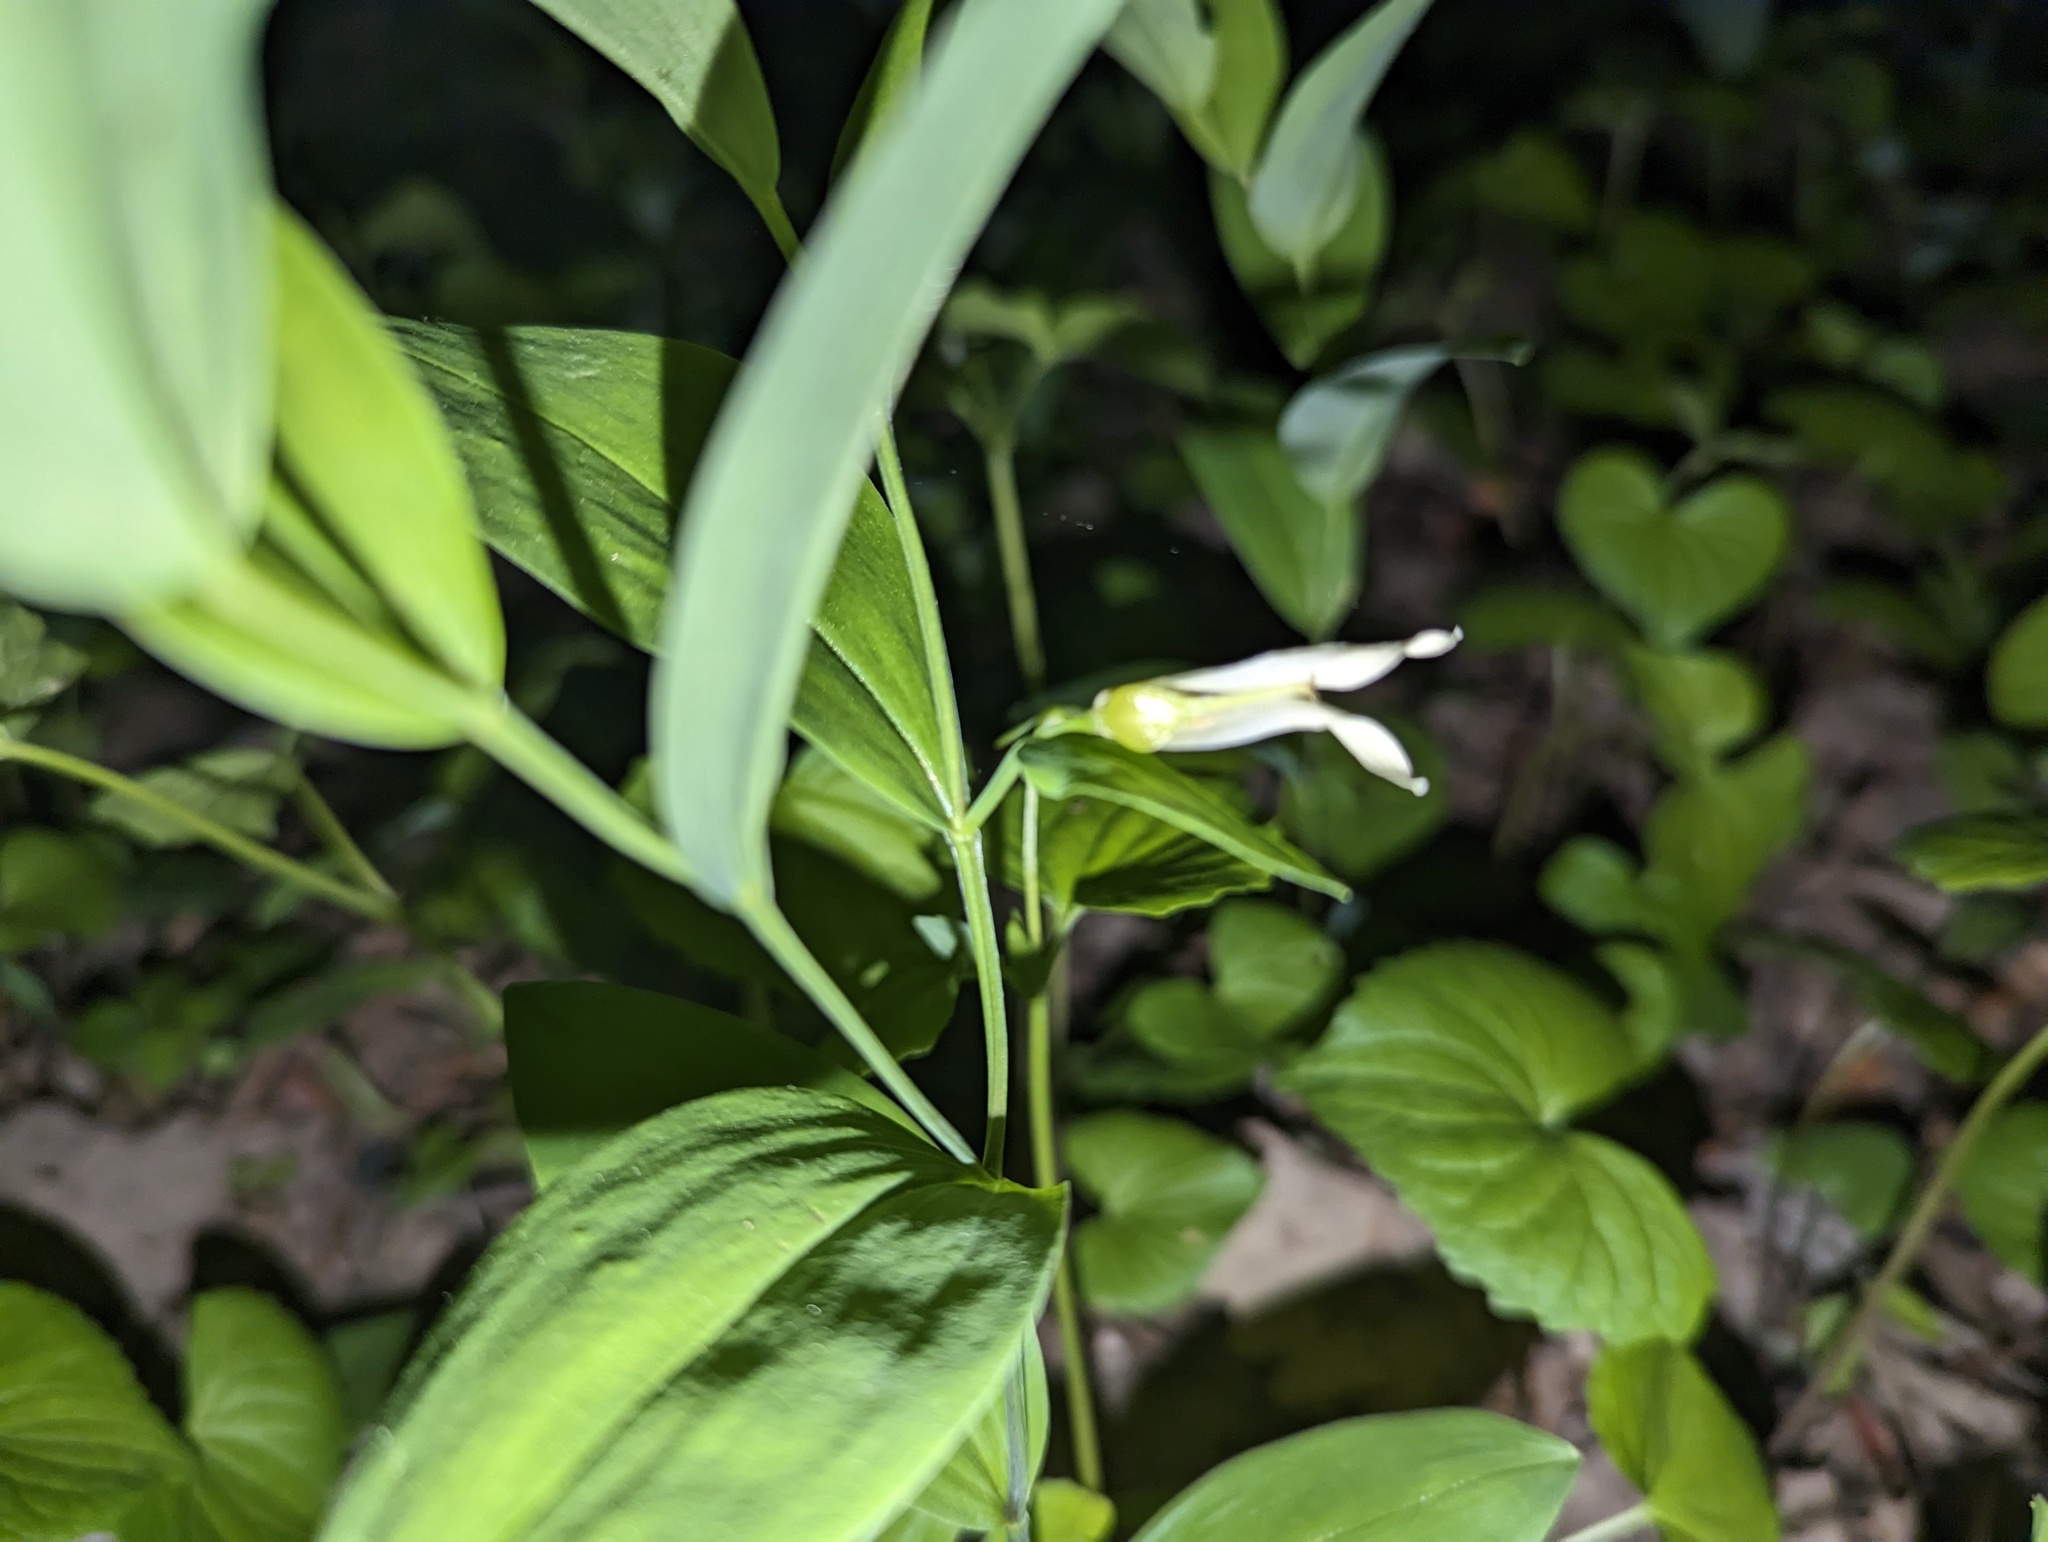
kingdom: Plantae
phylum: Tracheophyta
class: Liliopsida
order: Liliales
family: Colchicaceae
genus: Uvularia
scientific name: Uvularia floridana
